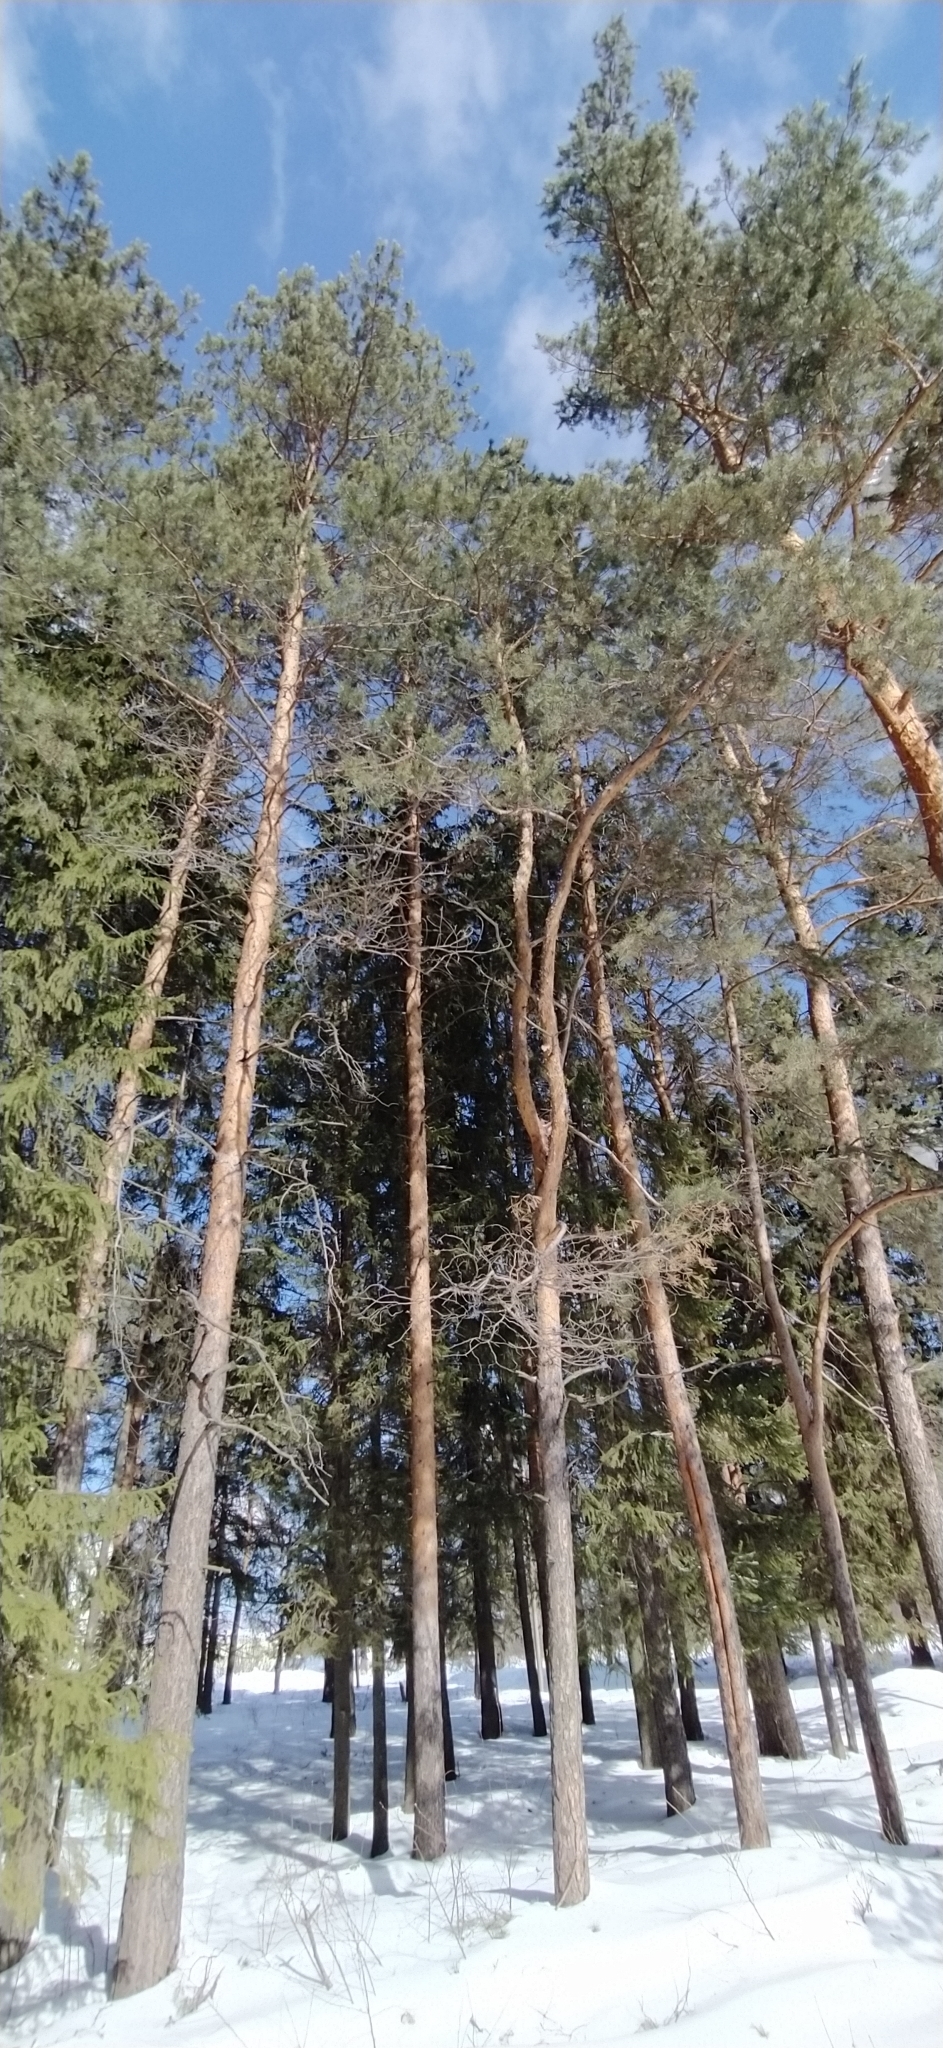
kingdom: Plantae
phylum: Tracheophyta
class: Pinopsida
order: Pinales
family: Pinaceae
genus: Pinus
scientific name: Pinus sylvestris
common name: Scots pine
